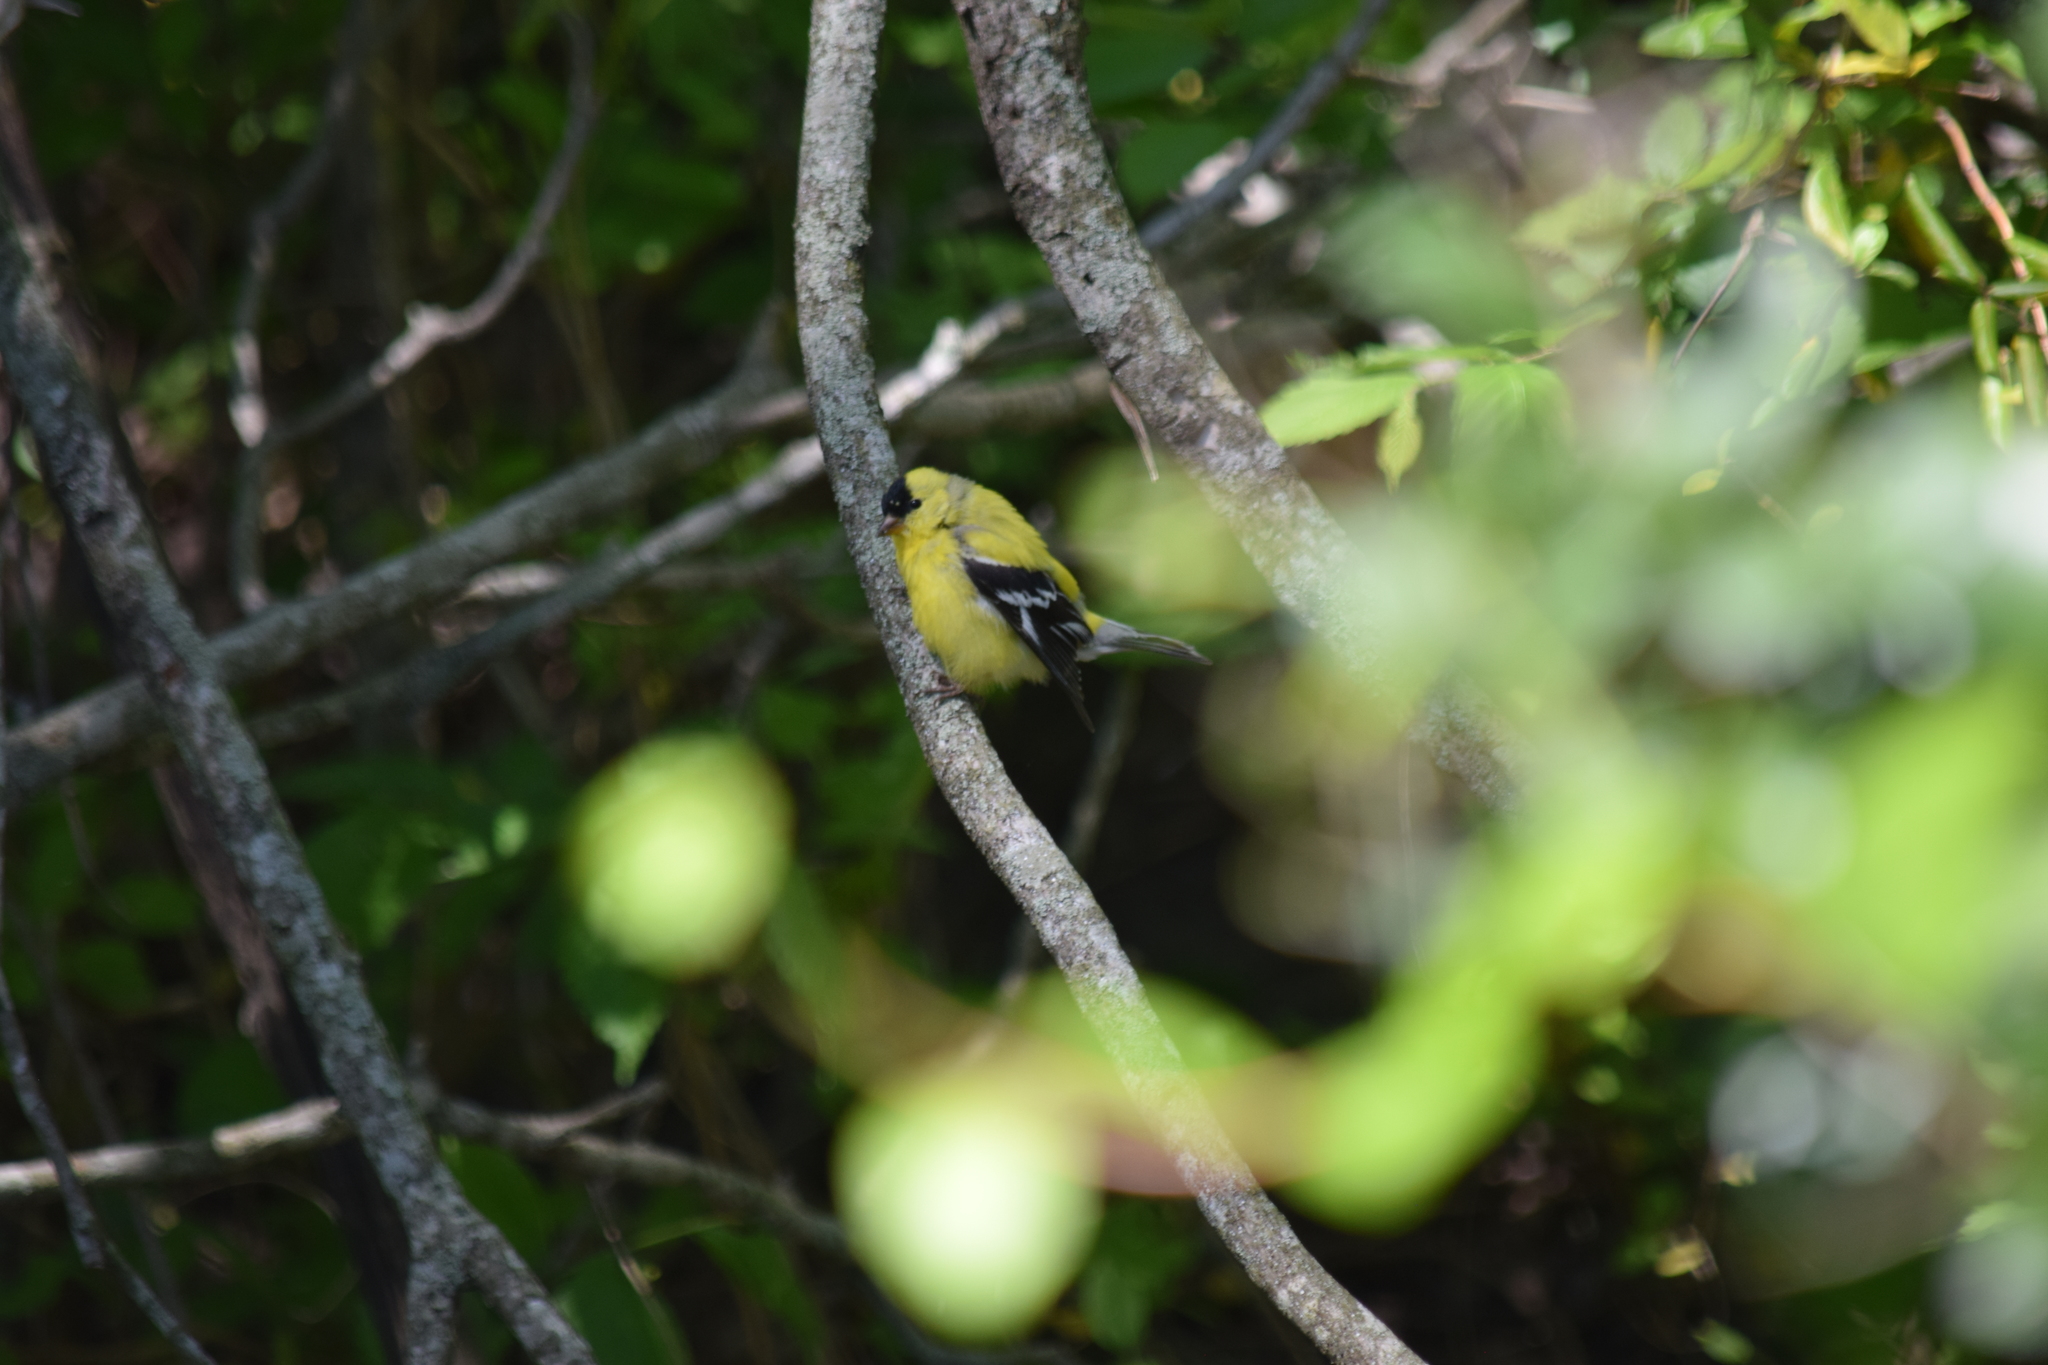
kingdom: Animalia
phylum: Chordata
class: Aves
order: Passeriformes
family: Fringillidae
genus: Spinus
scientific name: Spinus tristis
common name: American goldfinch
